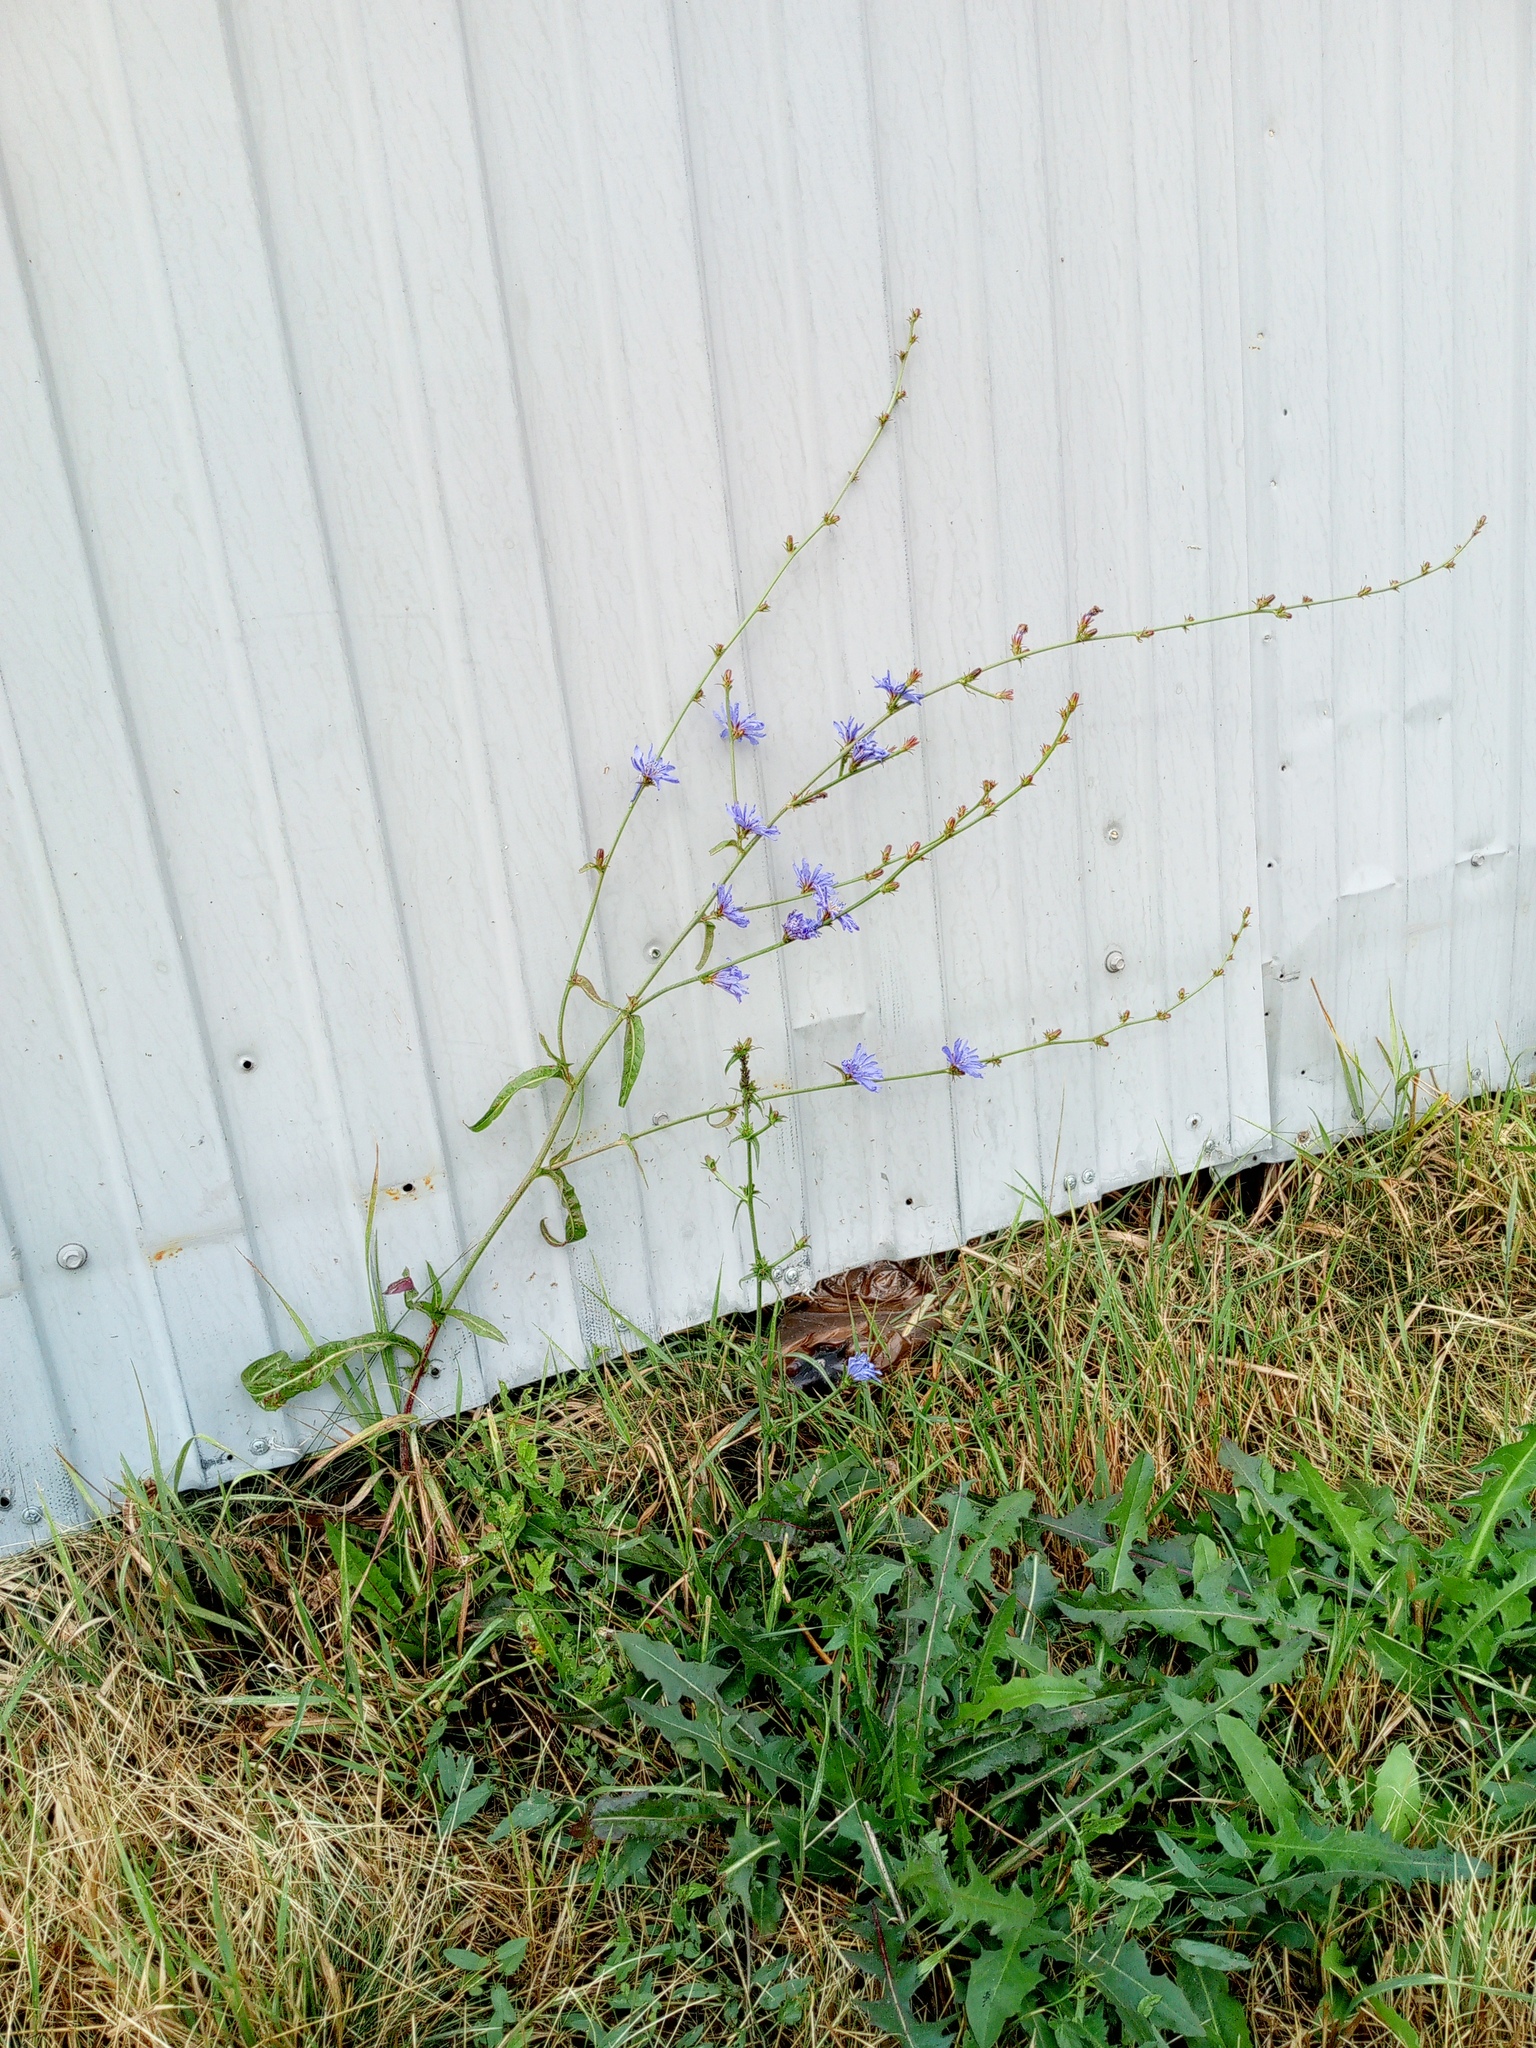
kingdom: Plantae
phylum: Tracheophyta
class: Magnoliopsida
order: Asterales
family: Asteraceae
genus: Cichorium
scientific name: Cichorium intybus
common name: Chicory
